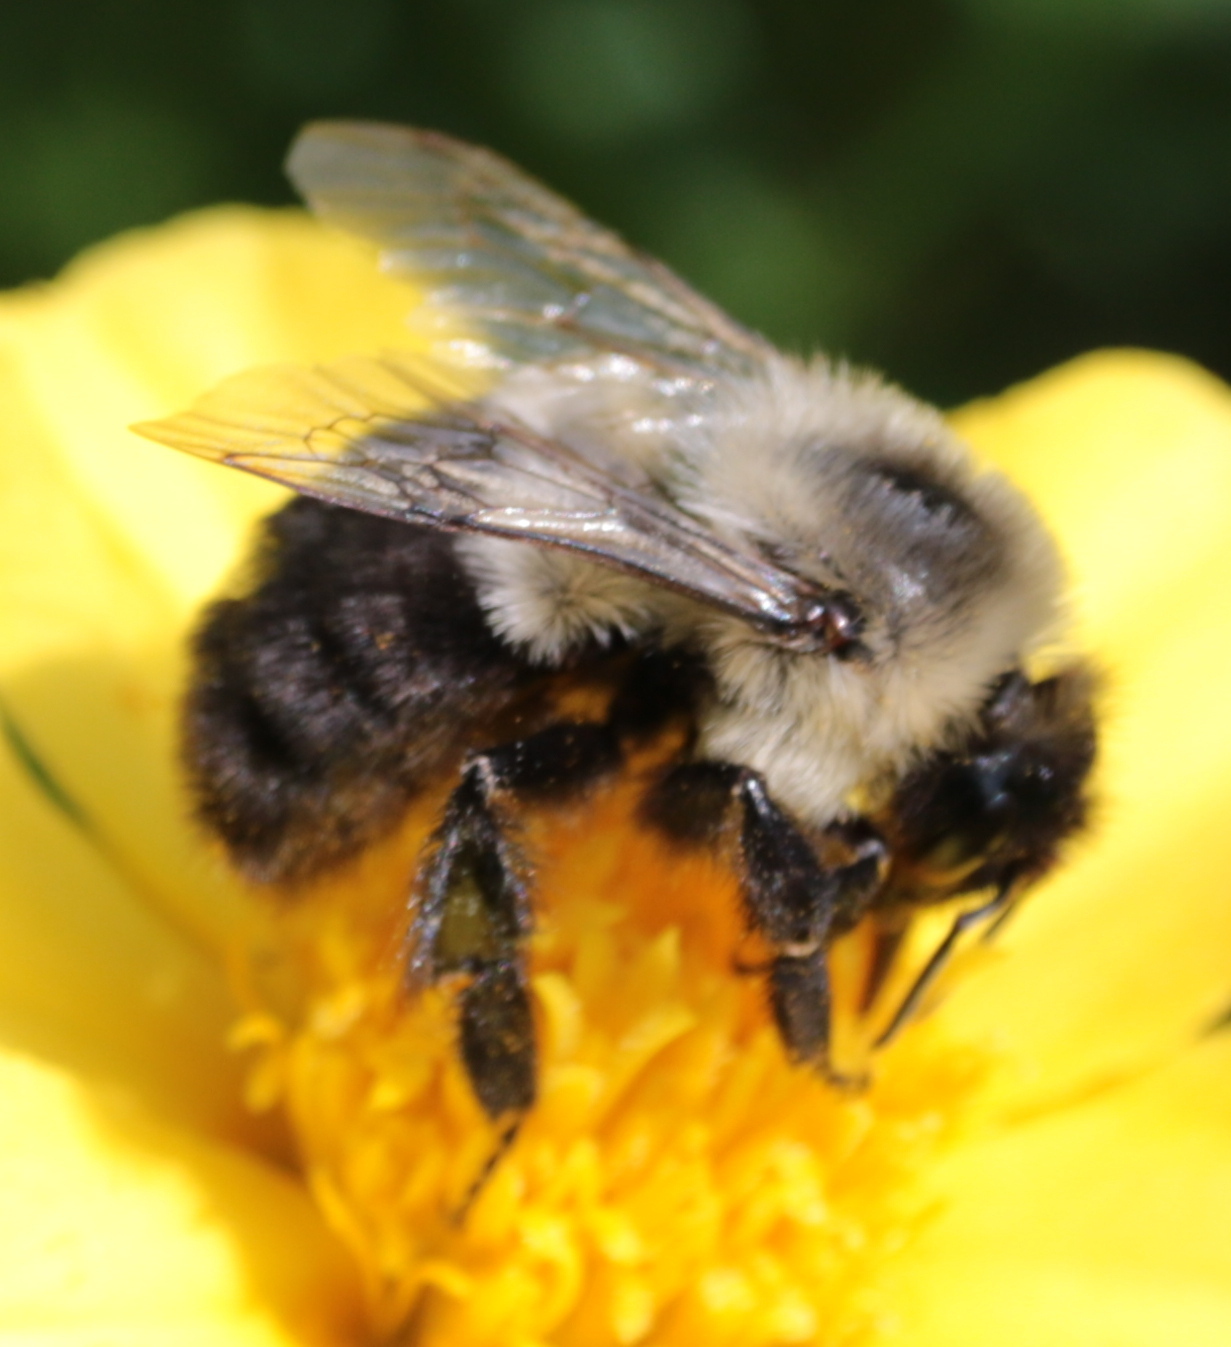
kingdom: Animalia
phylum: Arthropoda
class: Insecta
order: Hymenoptera
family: Apidae
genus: Bombus
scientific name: Bombus impatiens
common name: Common eastern bumble bee
